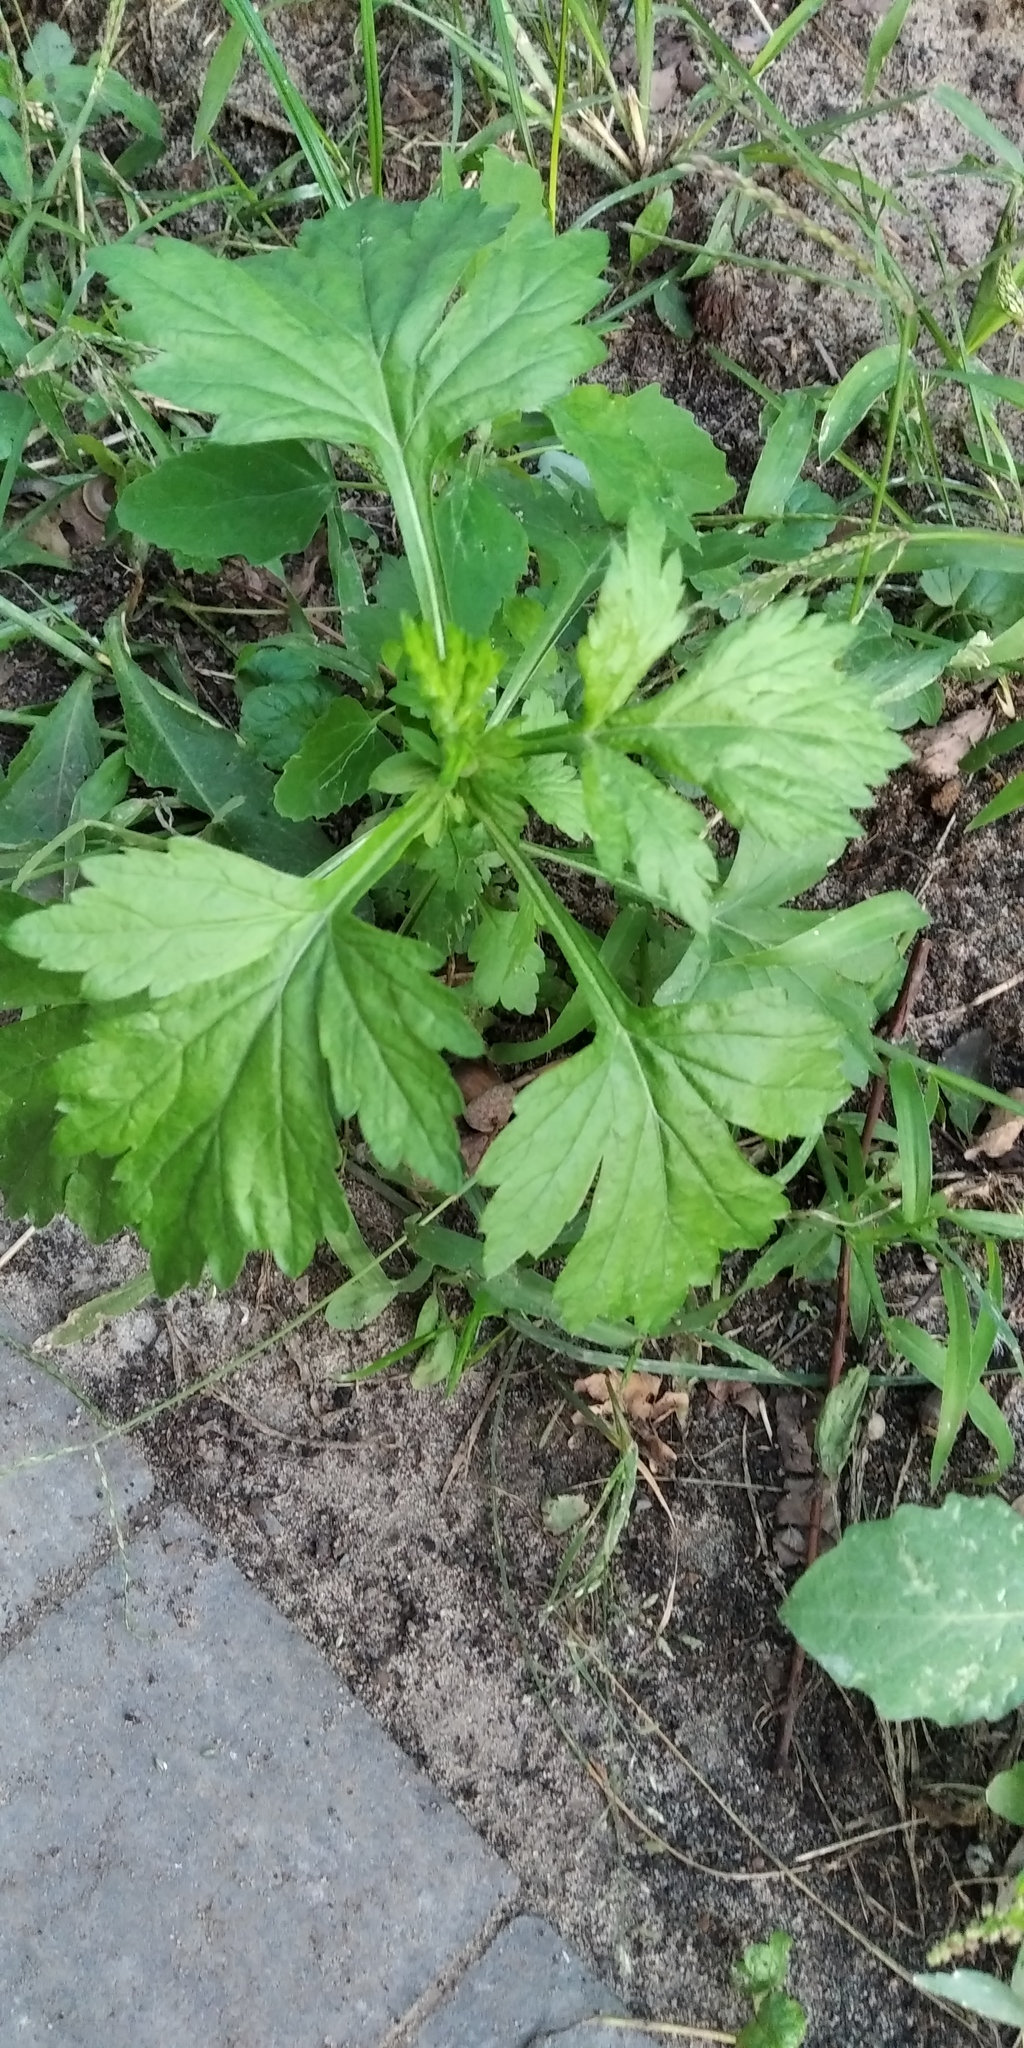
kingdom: Plantae
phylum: Tracheophyta
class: Magnoliopsida
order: Asterales
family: Asteraceae
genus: Artemisia
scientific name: Artemisia vulgaris
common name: Mugwort
